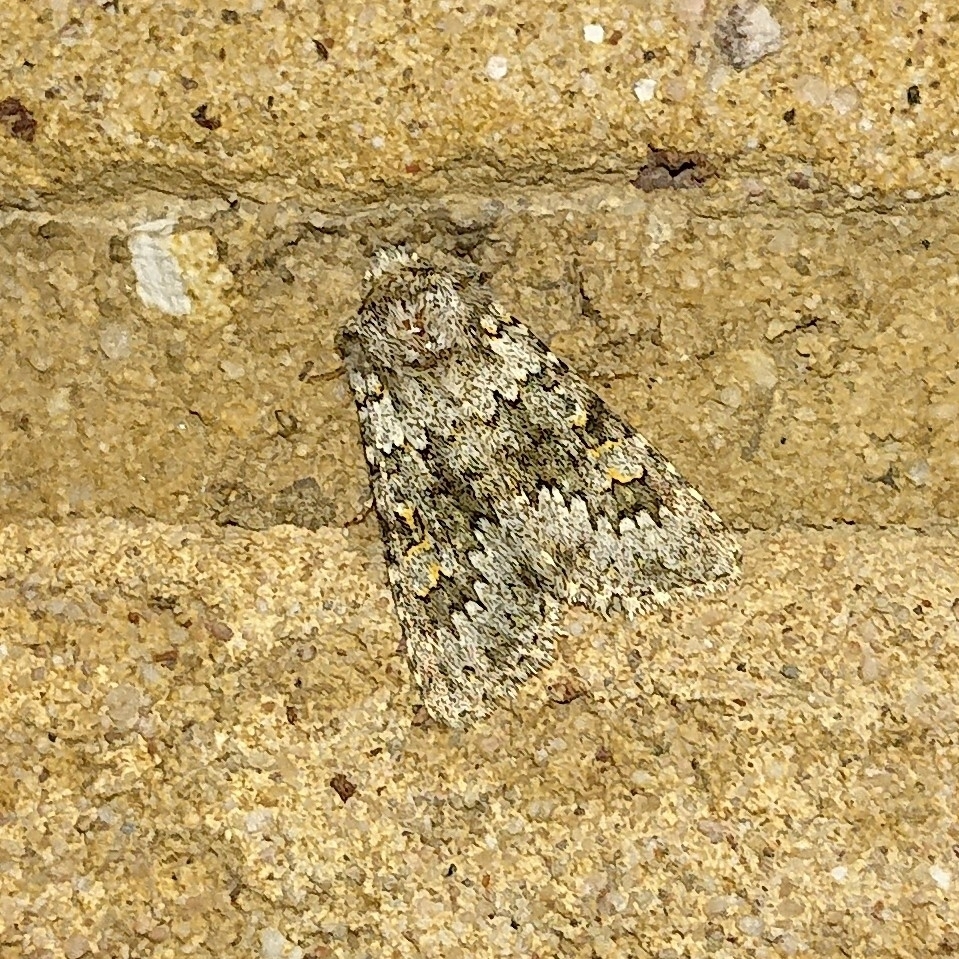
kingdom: Animalia
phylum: Arthropoda
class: Insecta
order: Lepidoptera
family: Noctuidae
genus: Hecatera
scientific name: Hecatera dysodea
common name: Small ranunculus
